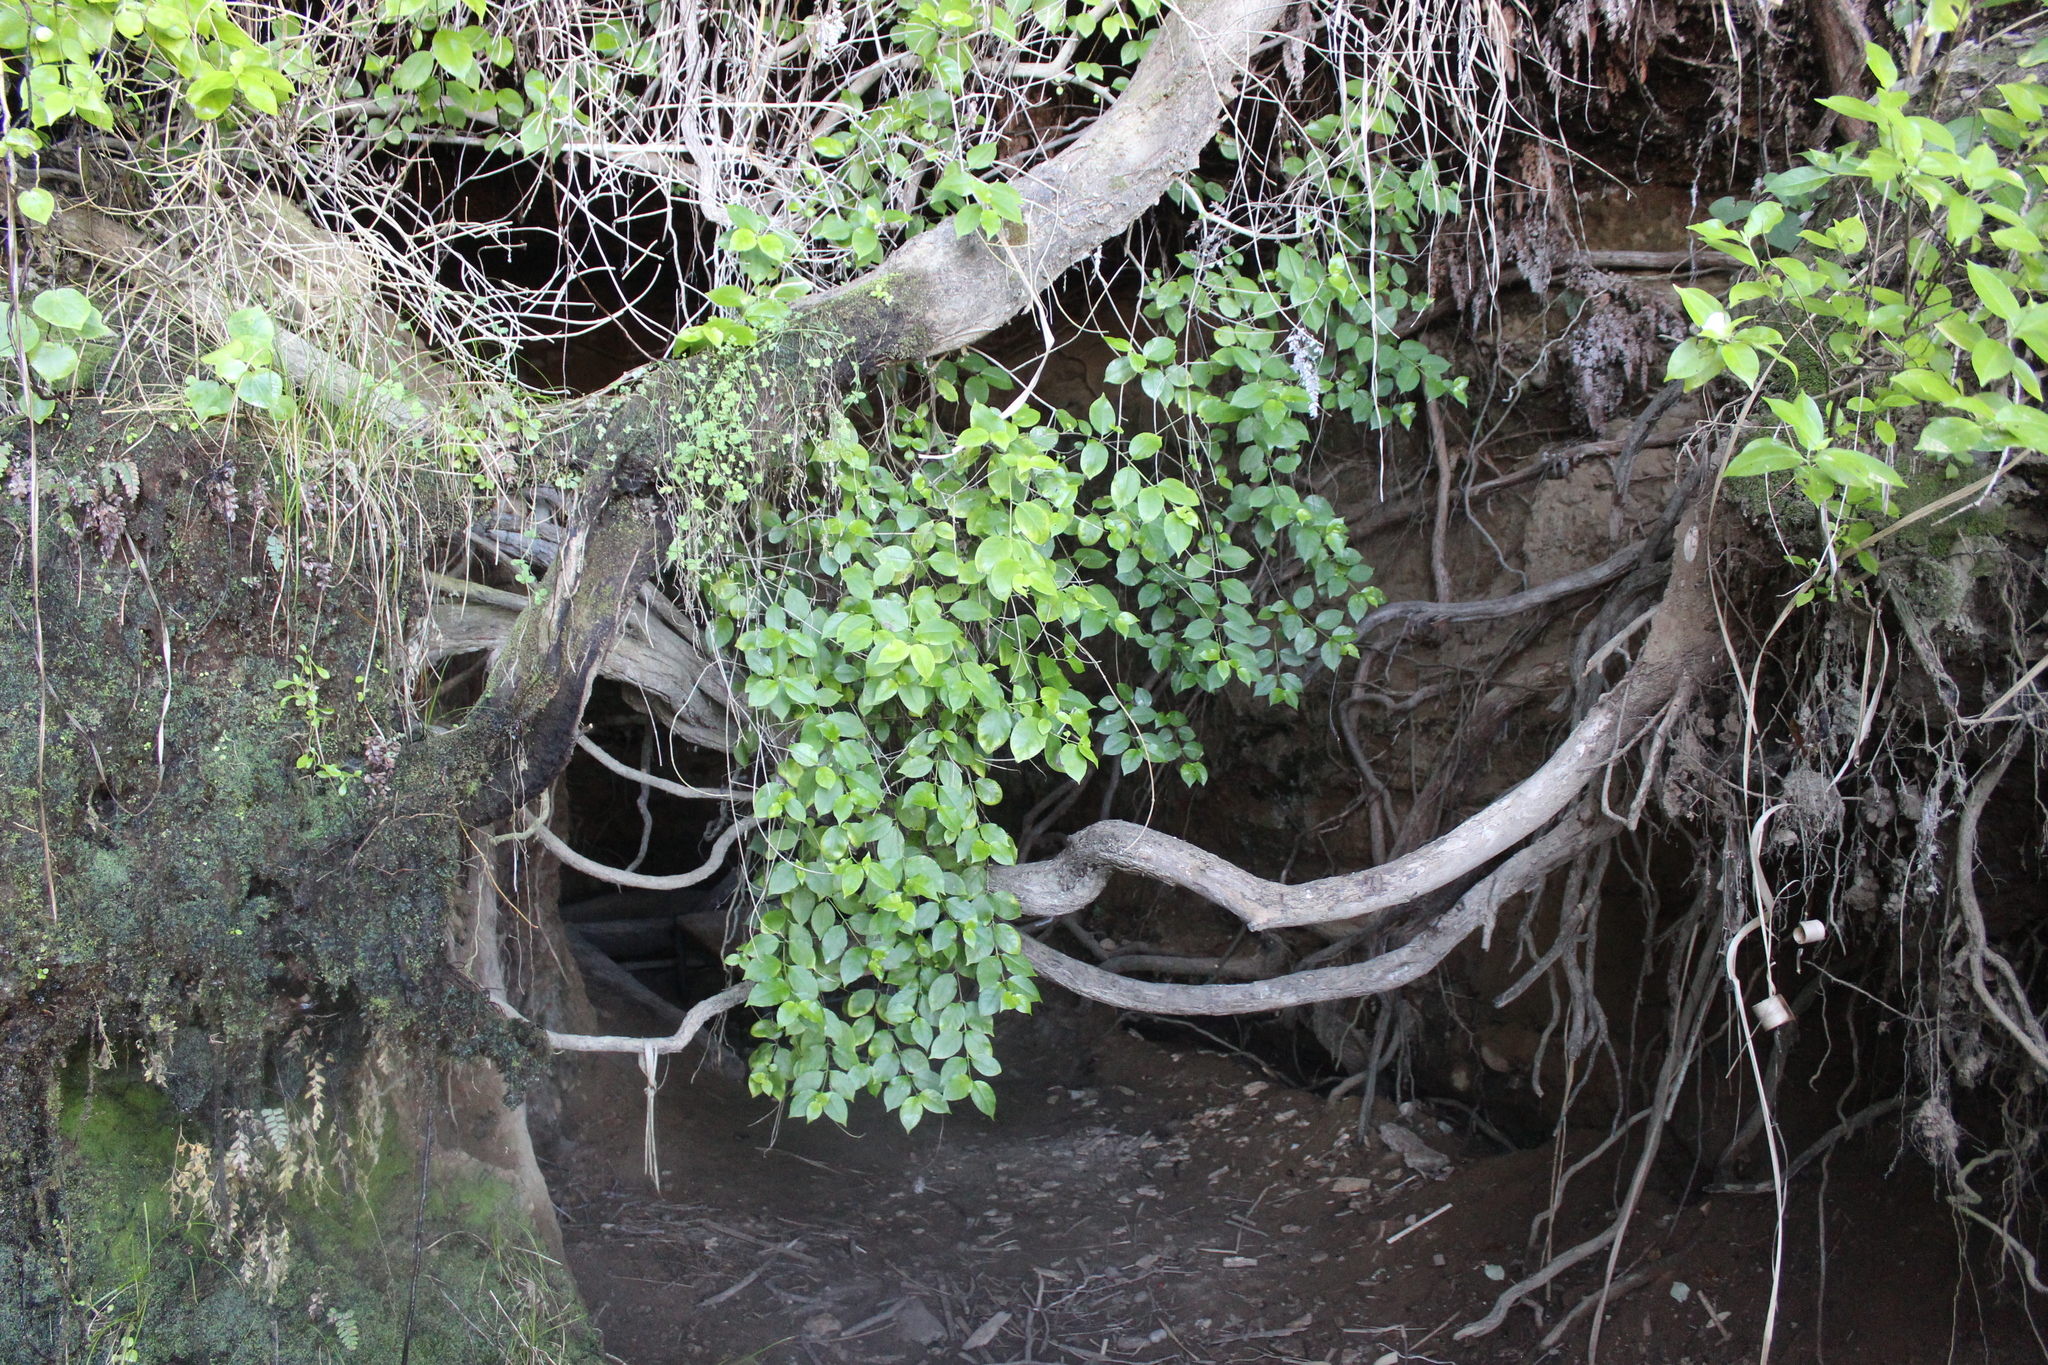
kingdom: Plantae
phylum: Tracheophyta
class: Magnoliopsida
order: Gentianales
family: Loganiaceae
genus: Geniostoma
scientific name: Geniostoma ligustrifolium
